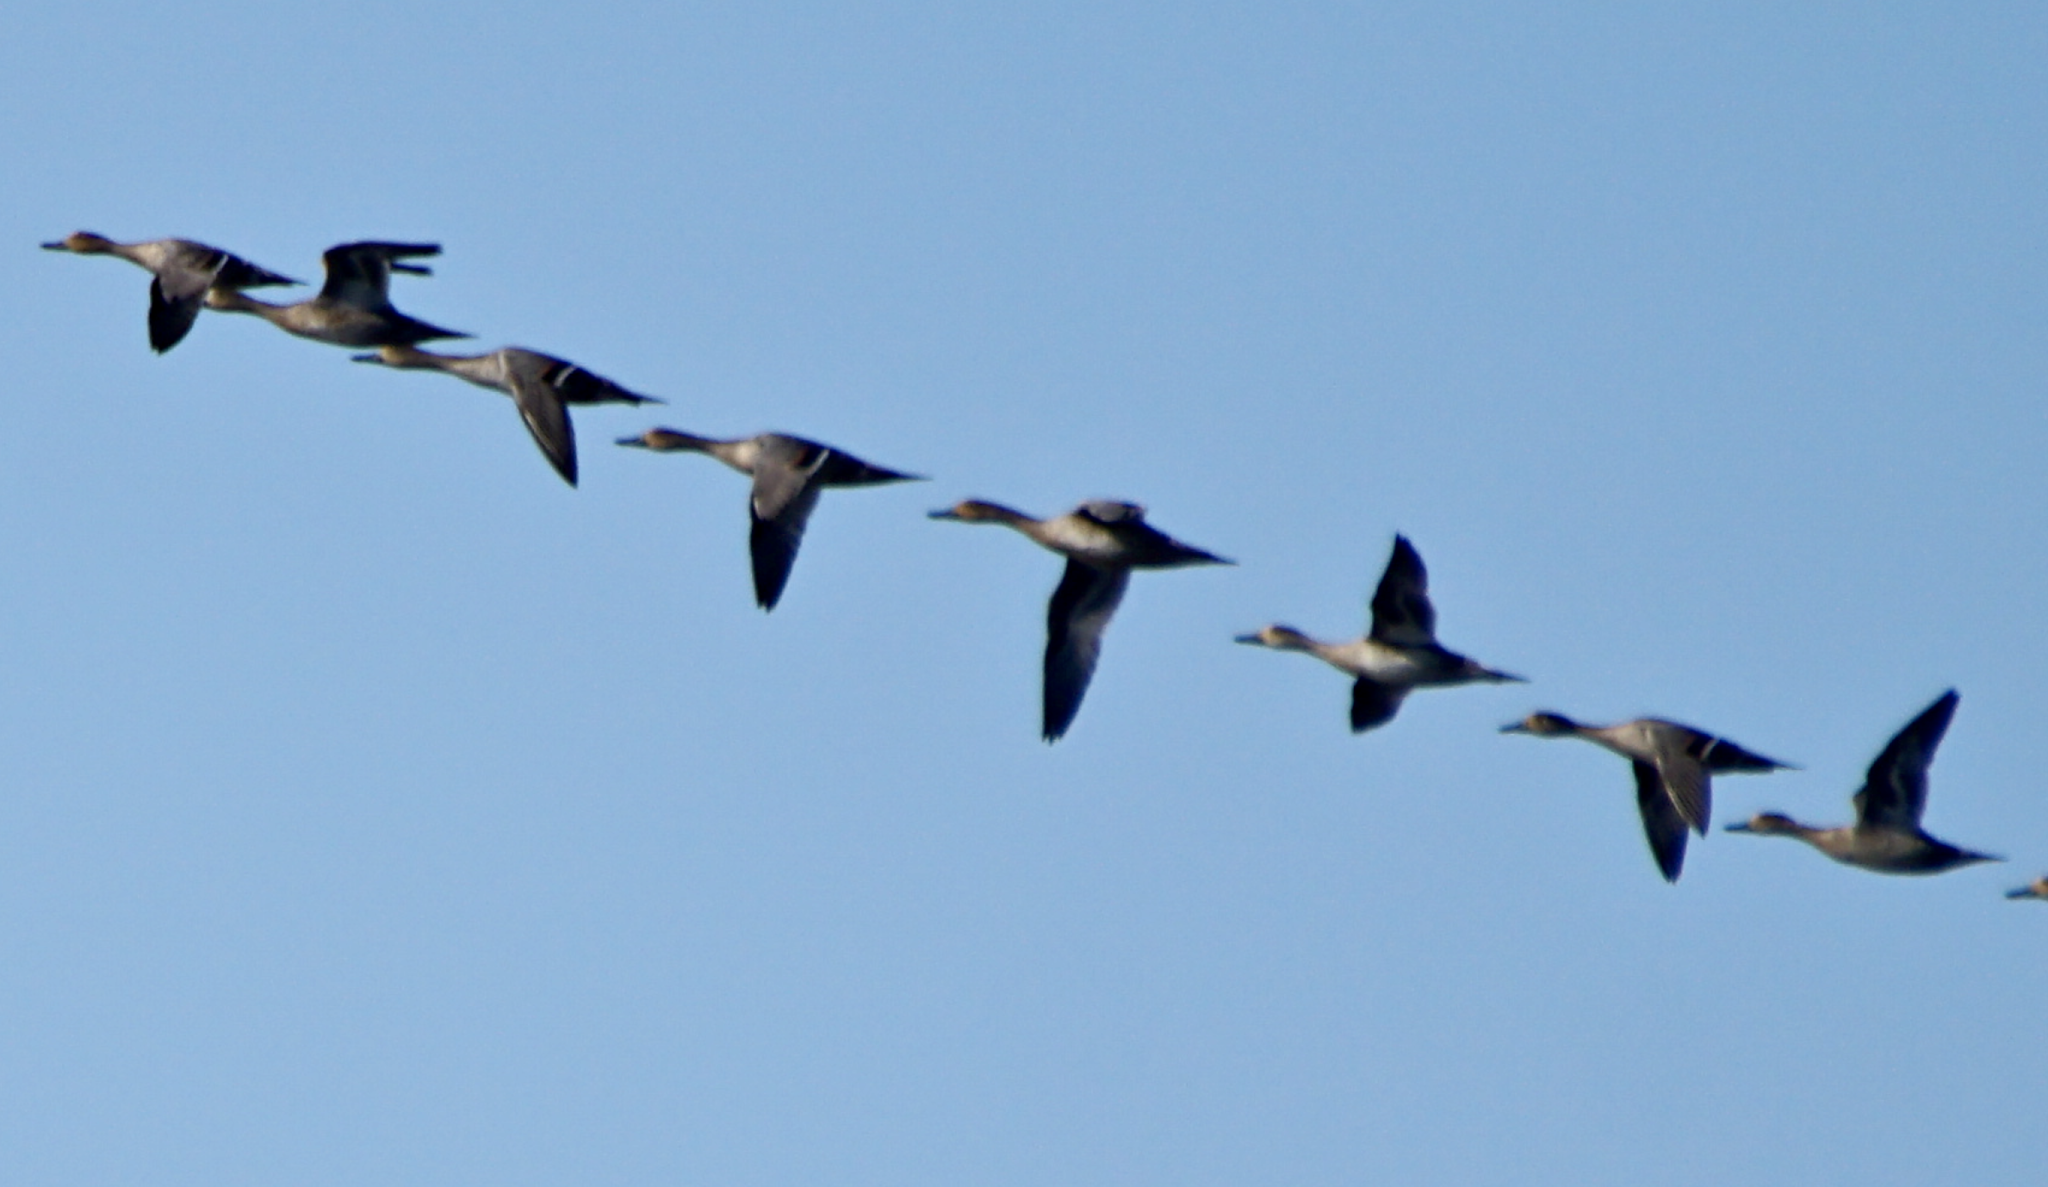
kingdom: Animalia
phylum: Chordata
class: Aves
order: Anseriformes
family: Anatidae
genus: Anas
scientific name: Anas acuta
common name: Northern pintail
